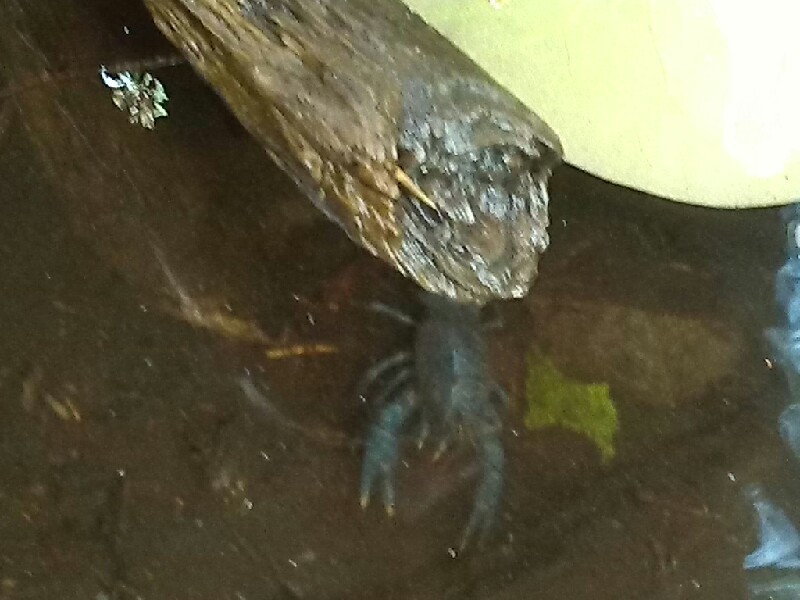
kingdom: Animalia
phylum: Arthropoda
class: Malacostraca
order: Decapoda
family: Astacidae
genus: Astacus
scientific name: Astacus astacus
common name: Noble crayfish
